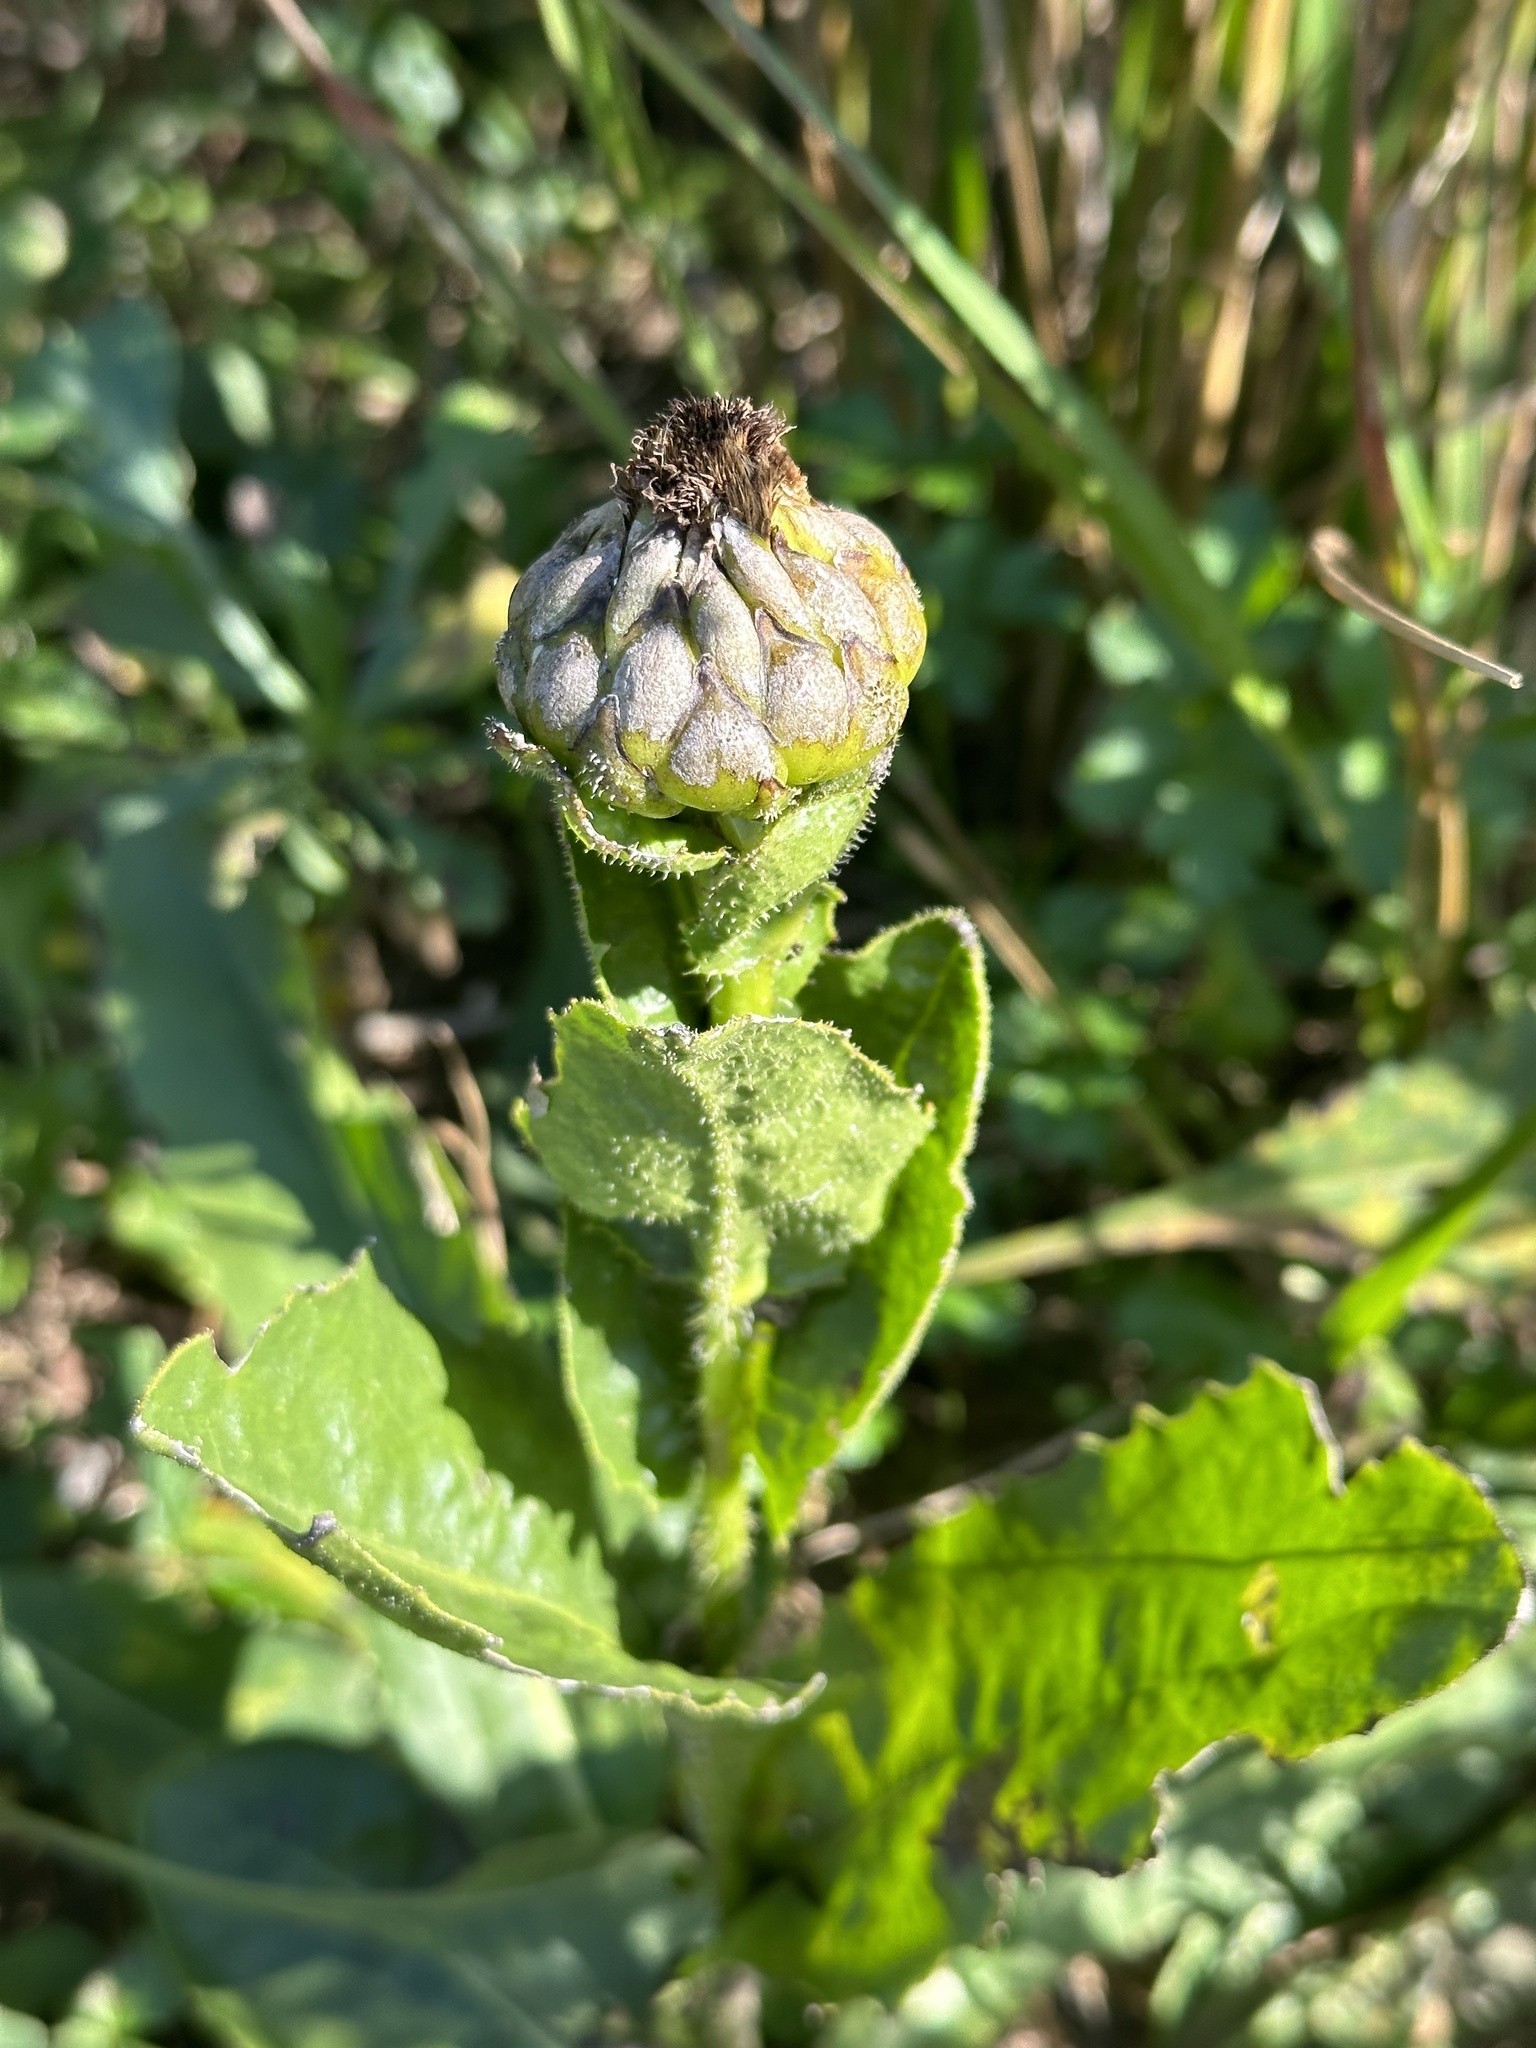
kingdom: Plantae
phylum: Tracheophyta
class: Magnoliopsida
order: Asterales
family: Asteraceae
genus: Trommsdorffia
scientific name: Trommsdorffia ciliata
